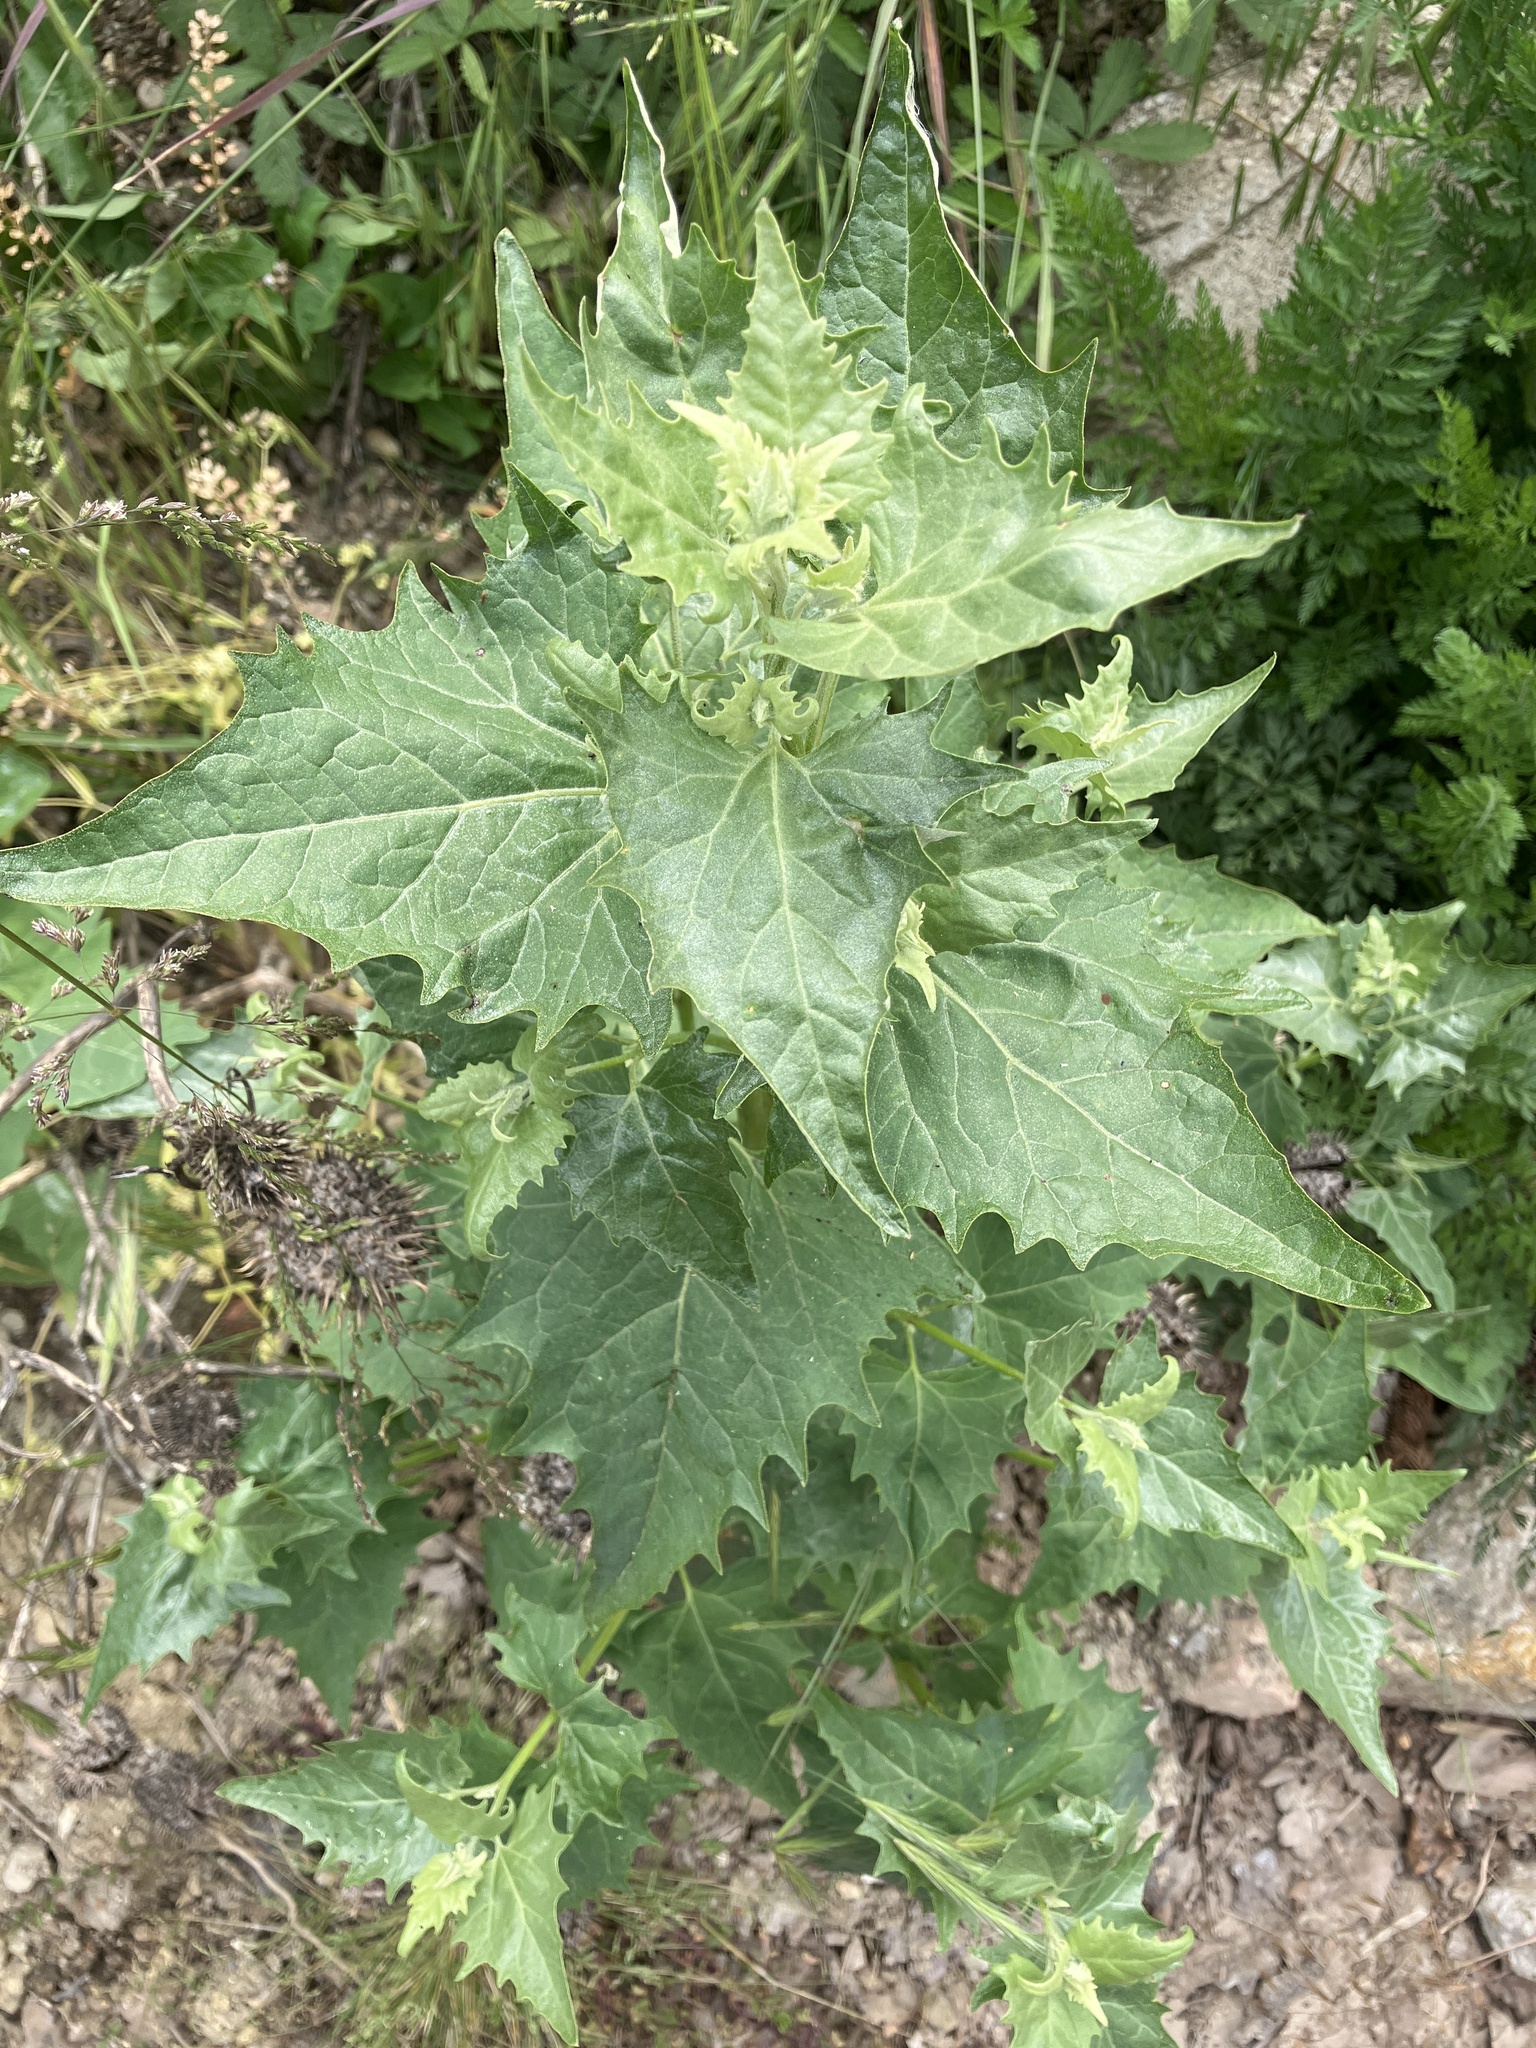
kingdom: Plantae
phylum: Tracheophyta
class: Magnoliopsida
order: Caryophyllales
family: Amaranthaceae
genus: Chenopodiastrum
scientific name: Chenopodiastrum hybridum
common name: Mapleleaf goosefoot
